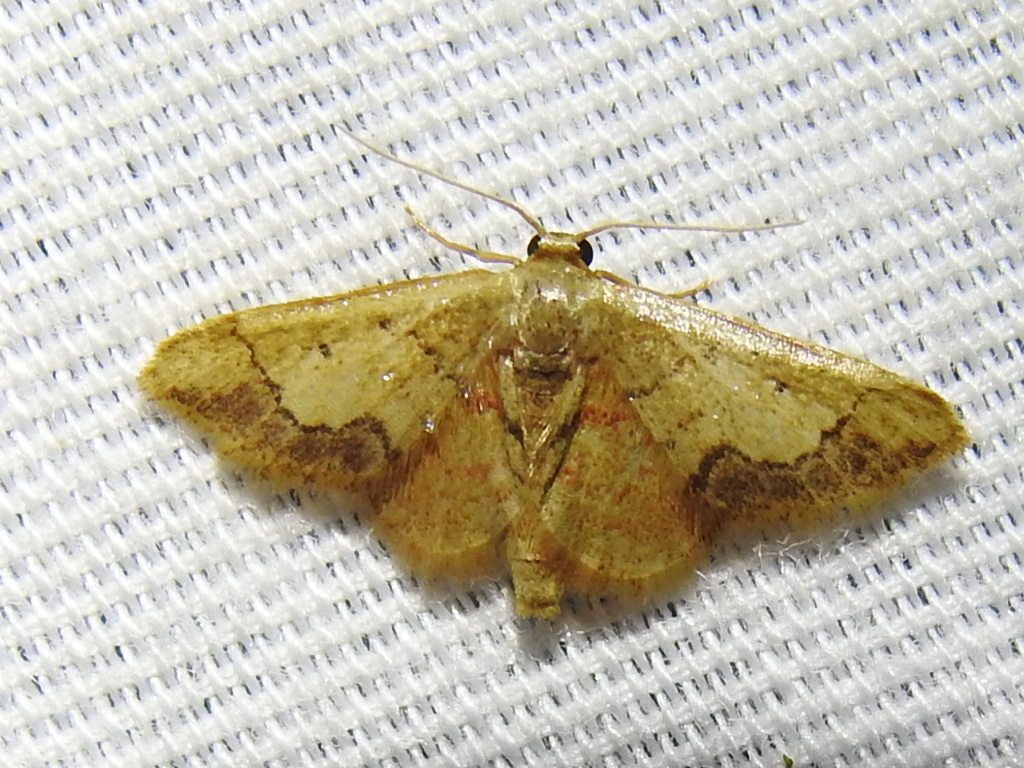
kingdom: Animalia
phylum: Arthropoda
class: Insecta
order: Lepidoptera
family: Geometridae
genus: Idaea
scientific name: Idaea kendallaria
